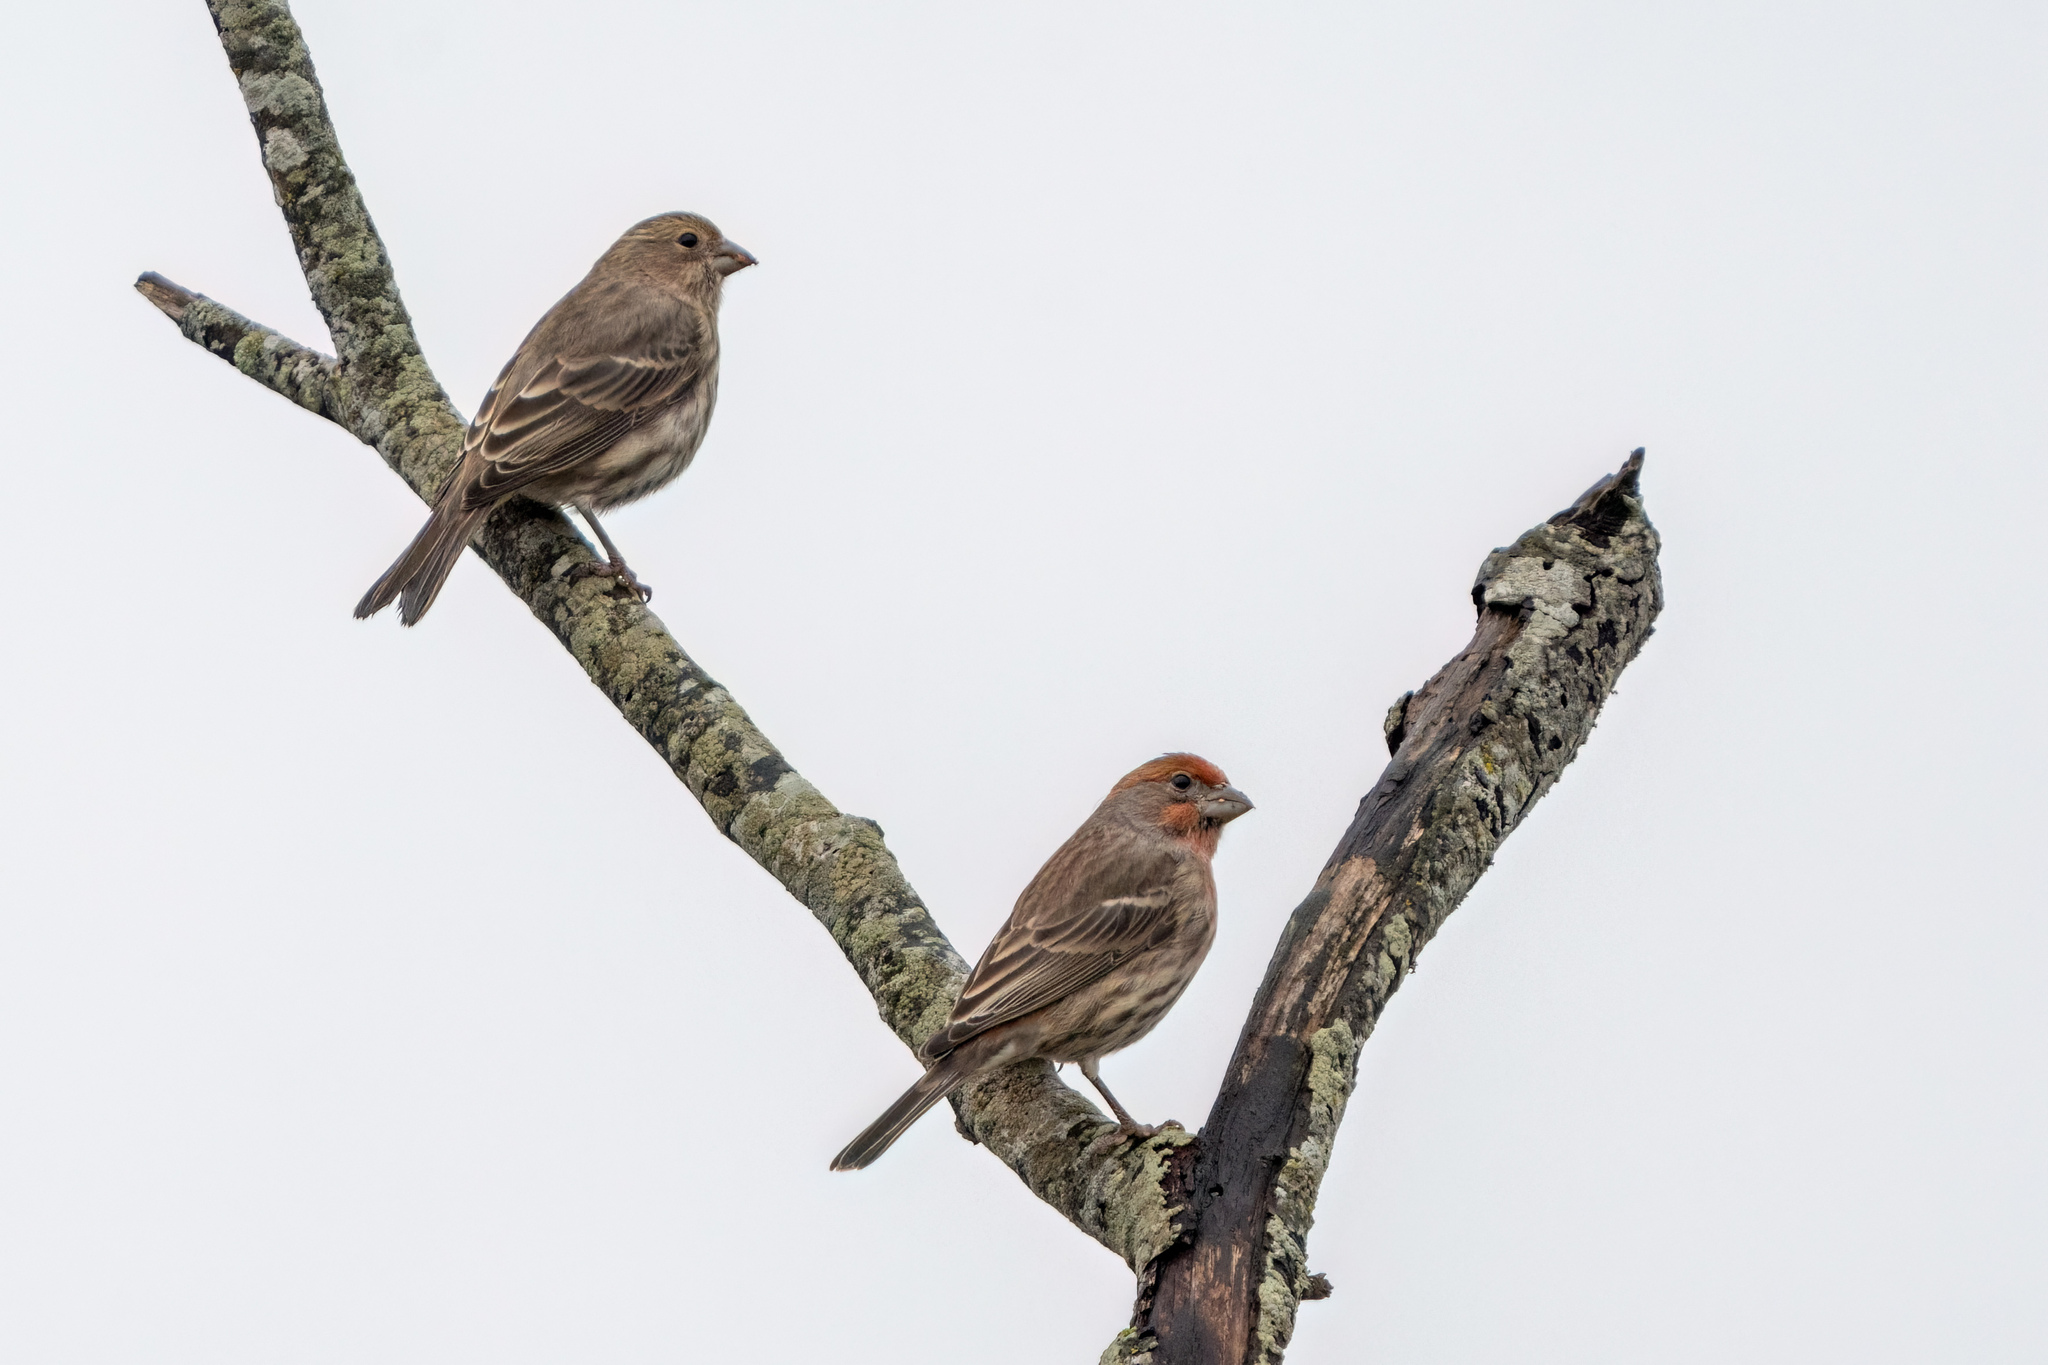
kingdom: Animalia
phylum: Chordata
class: Aves
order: Passeriformes
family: Fringillidae
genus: Haemorhous
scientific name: Haemorhous mexicanus
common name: House finch
